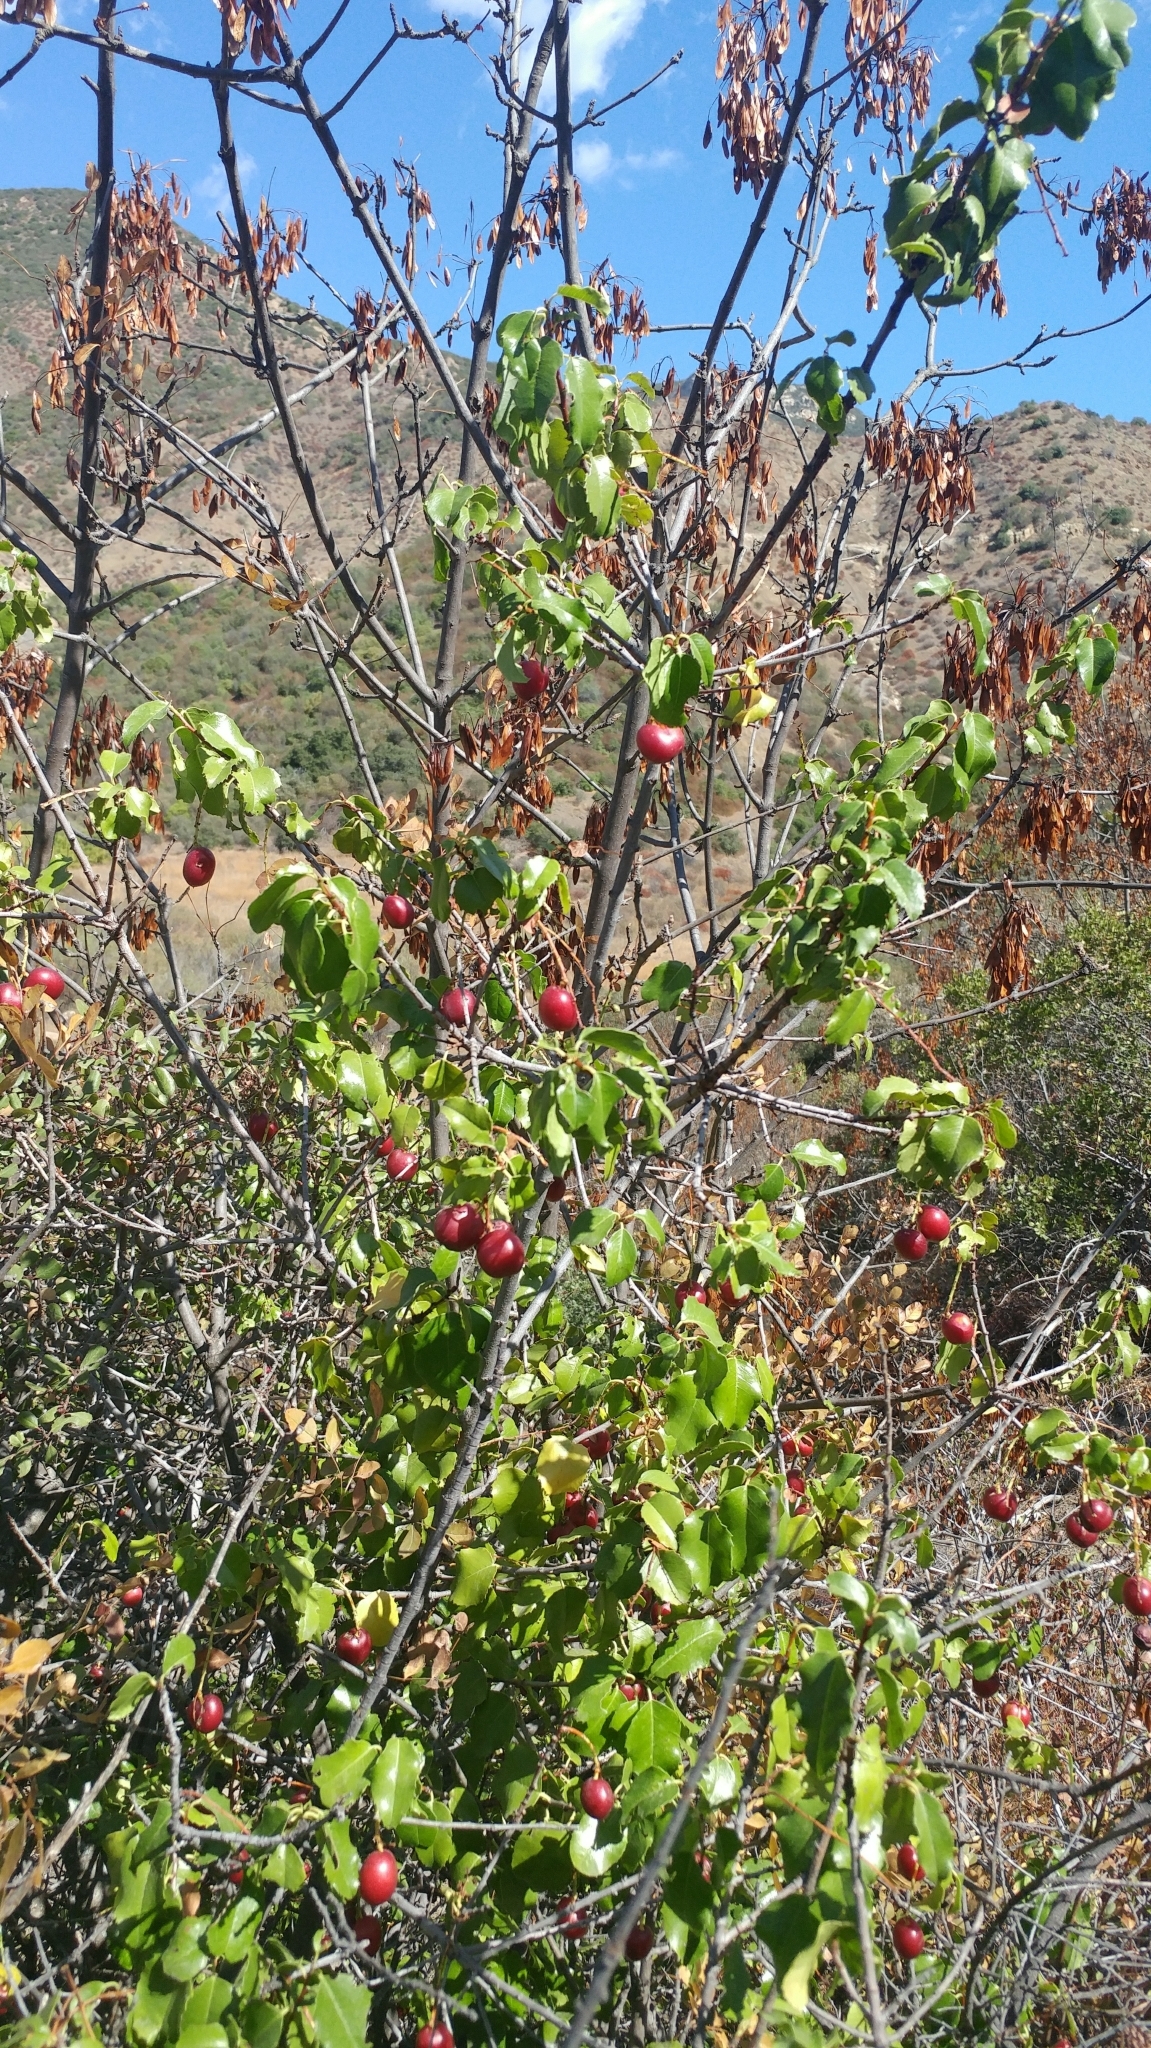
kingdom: Plantae
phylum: Tracheophyta
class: Magnoliopsida
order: Rosales
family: Rosaceae
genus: Prunus
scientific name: Prunus ilicifolia
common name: Hollyleaf cherry
